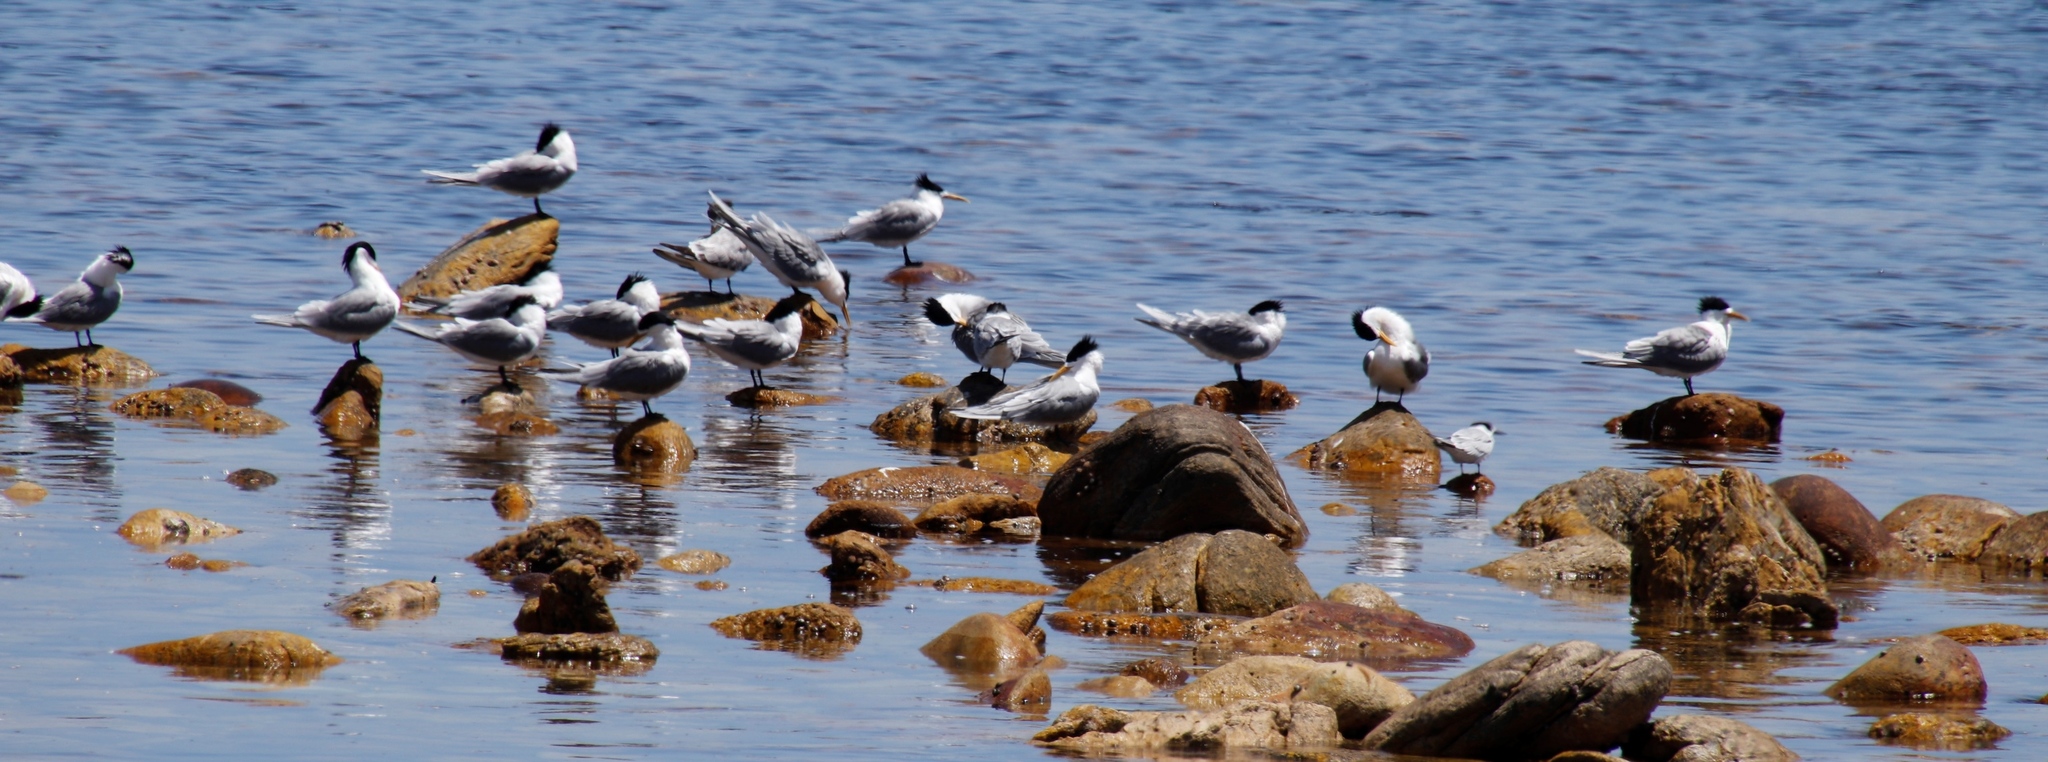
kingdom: Animalia
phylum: Chordata
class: Aves
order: Charadriiformes
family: Laridae
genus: Thalasseus
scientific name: Thalasseus bergii
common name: Greater crested tern
